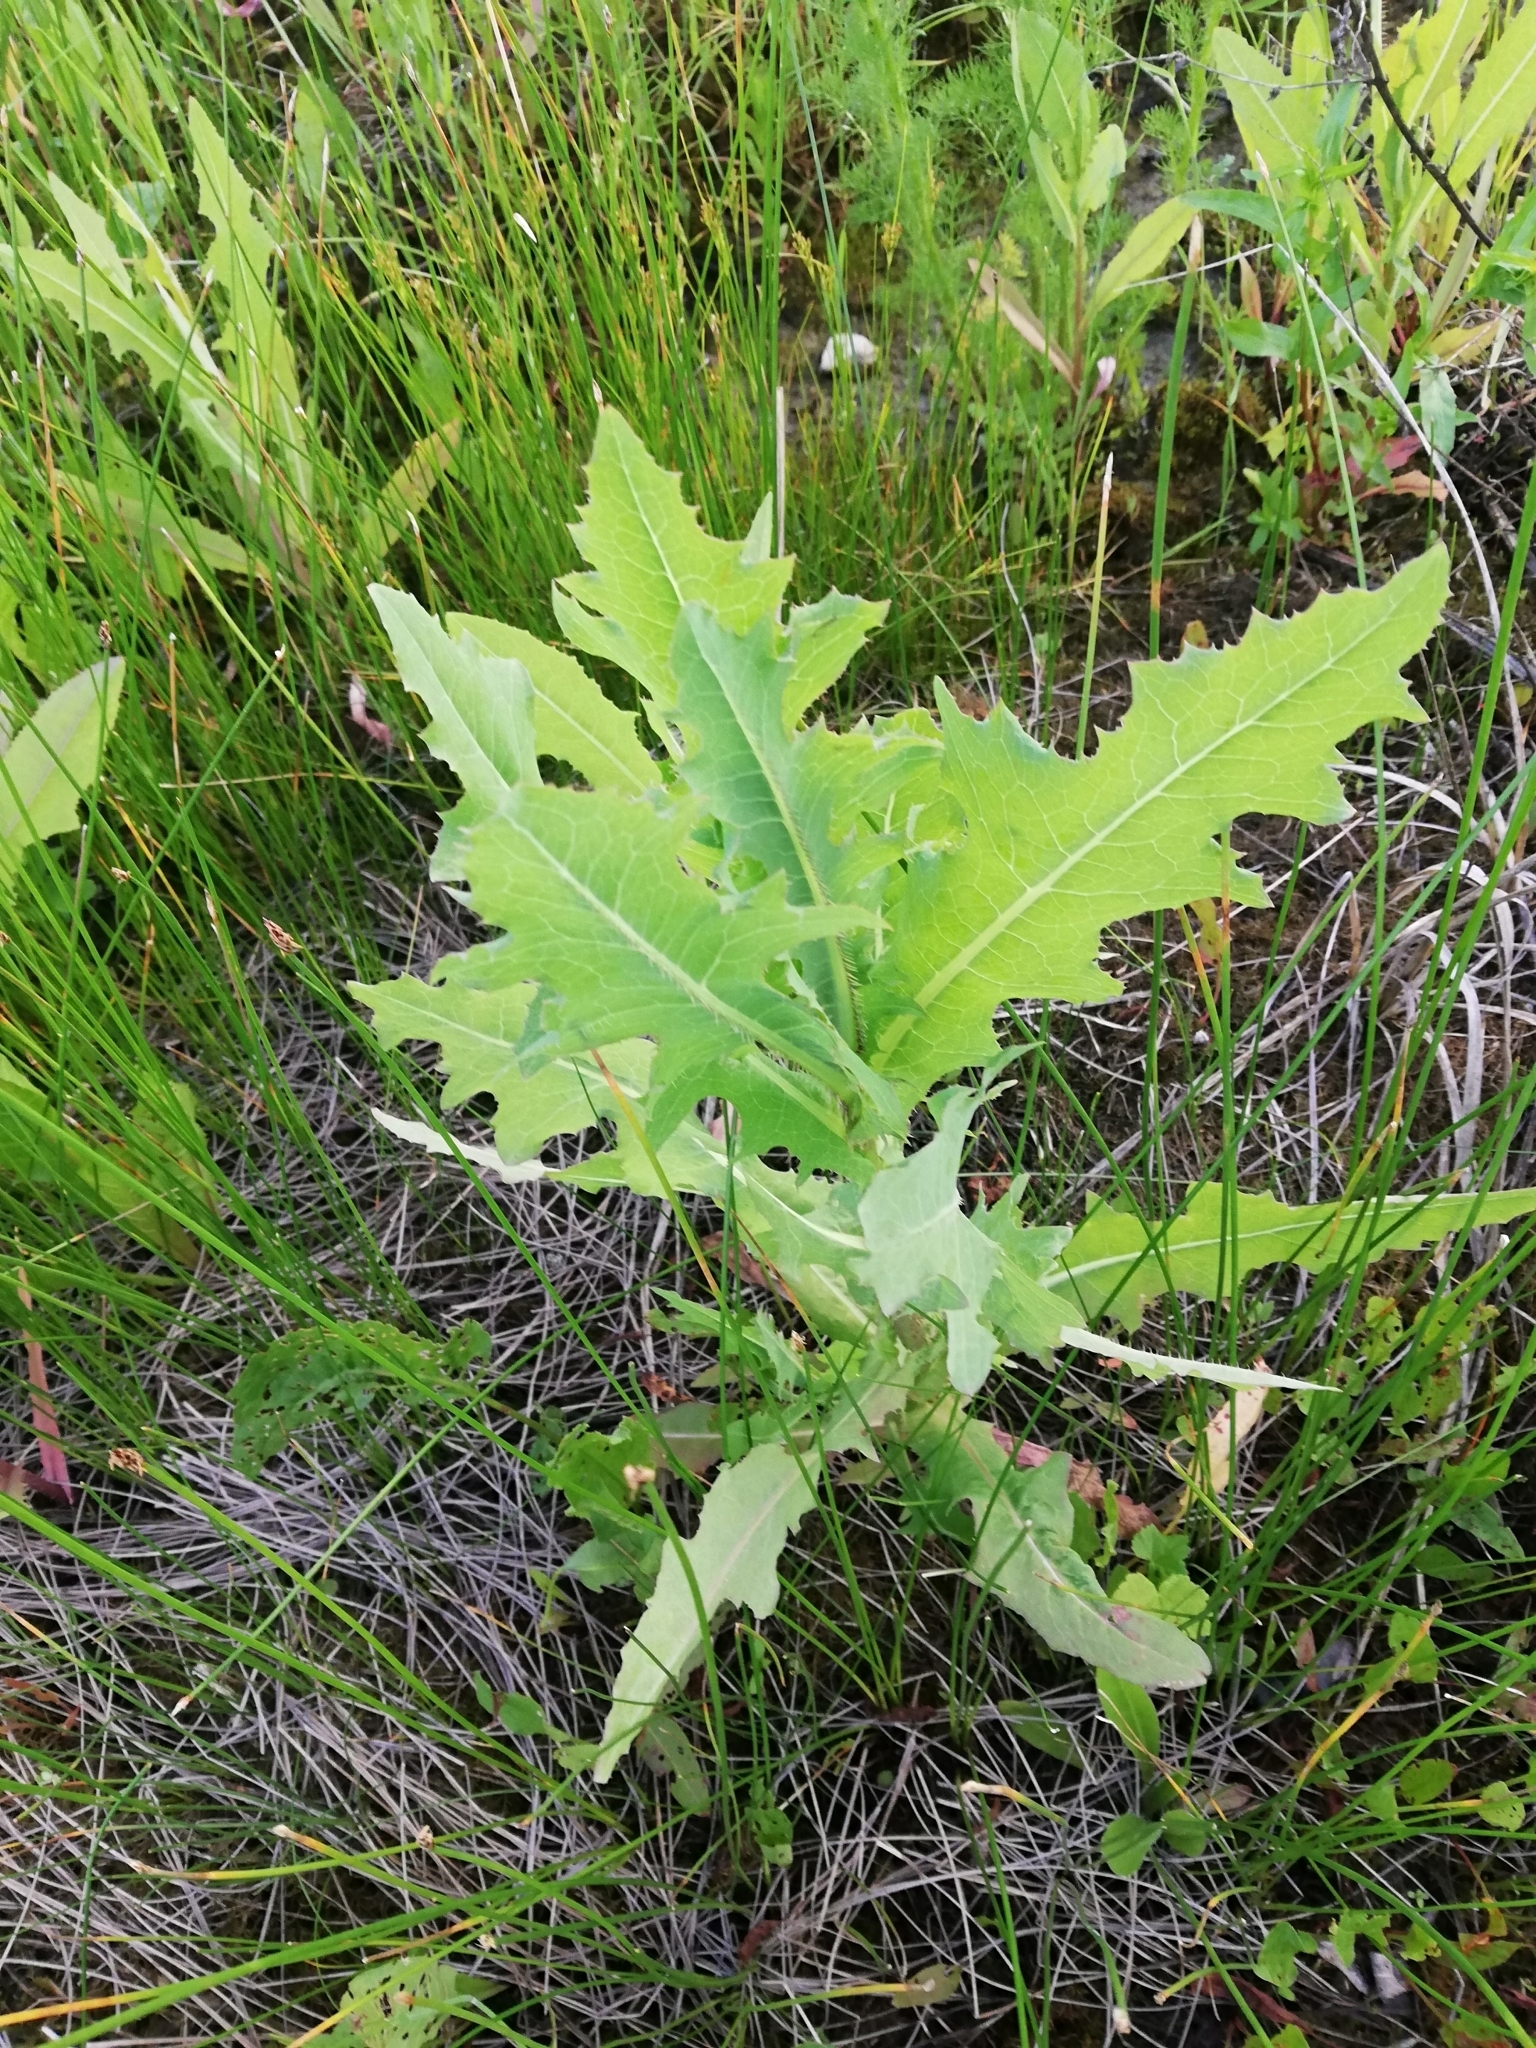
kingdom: Plantae
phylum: Tracheophyta
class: Magnoliopsida
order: Asterales
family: Asteraceae
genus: Lactuca
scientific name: Lactuca serriola
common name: Prickly lettuce
